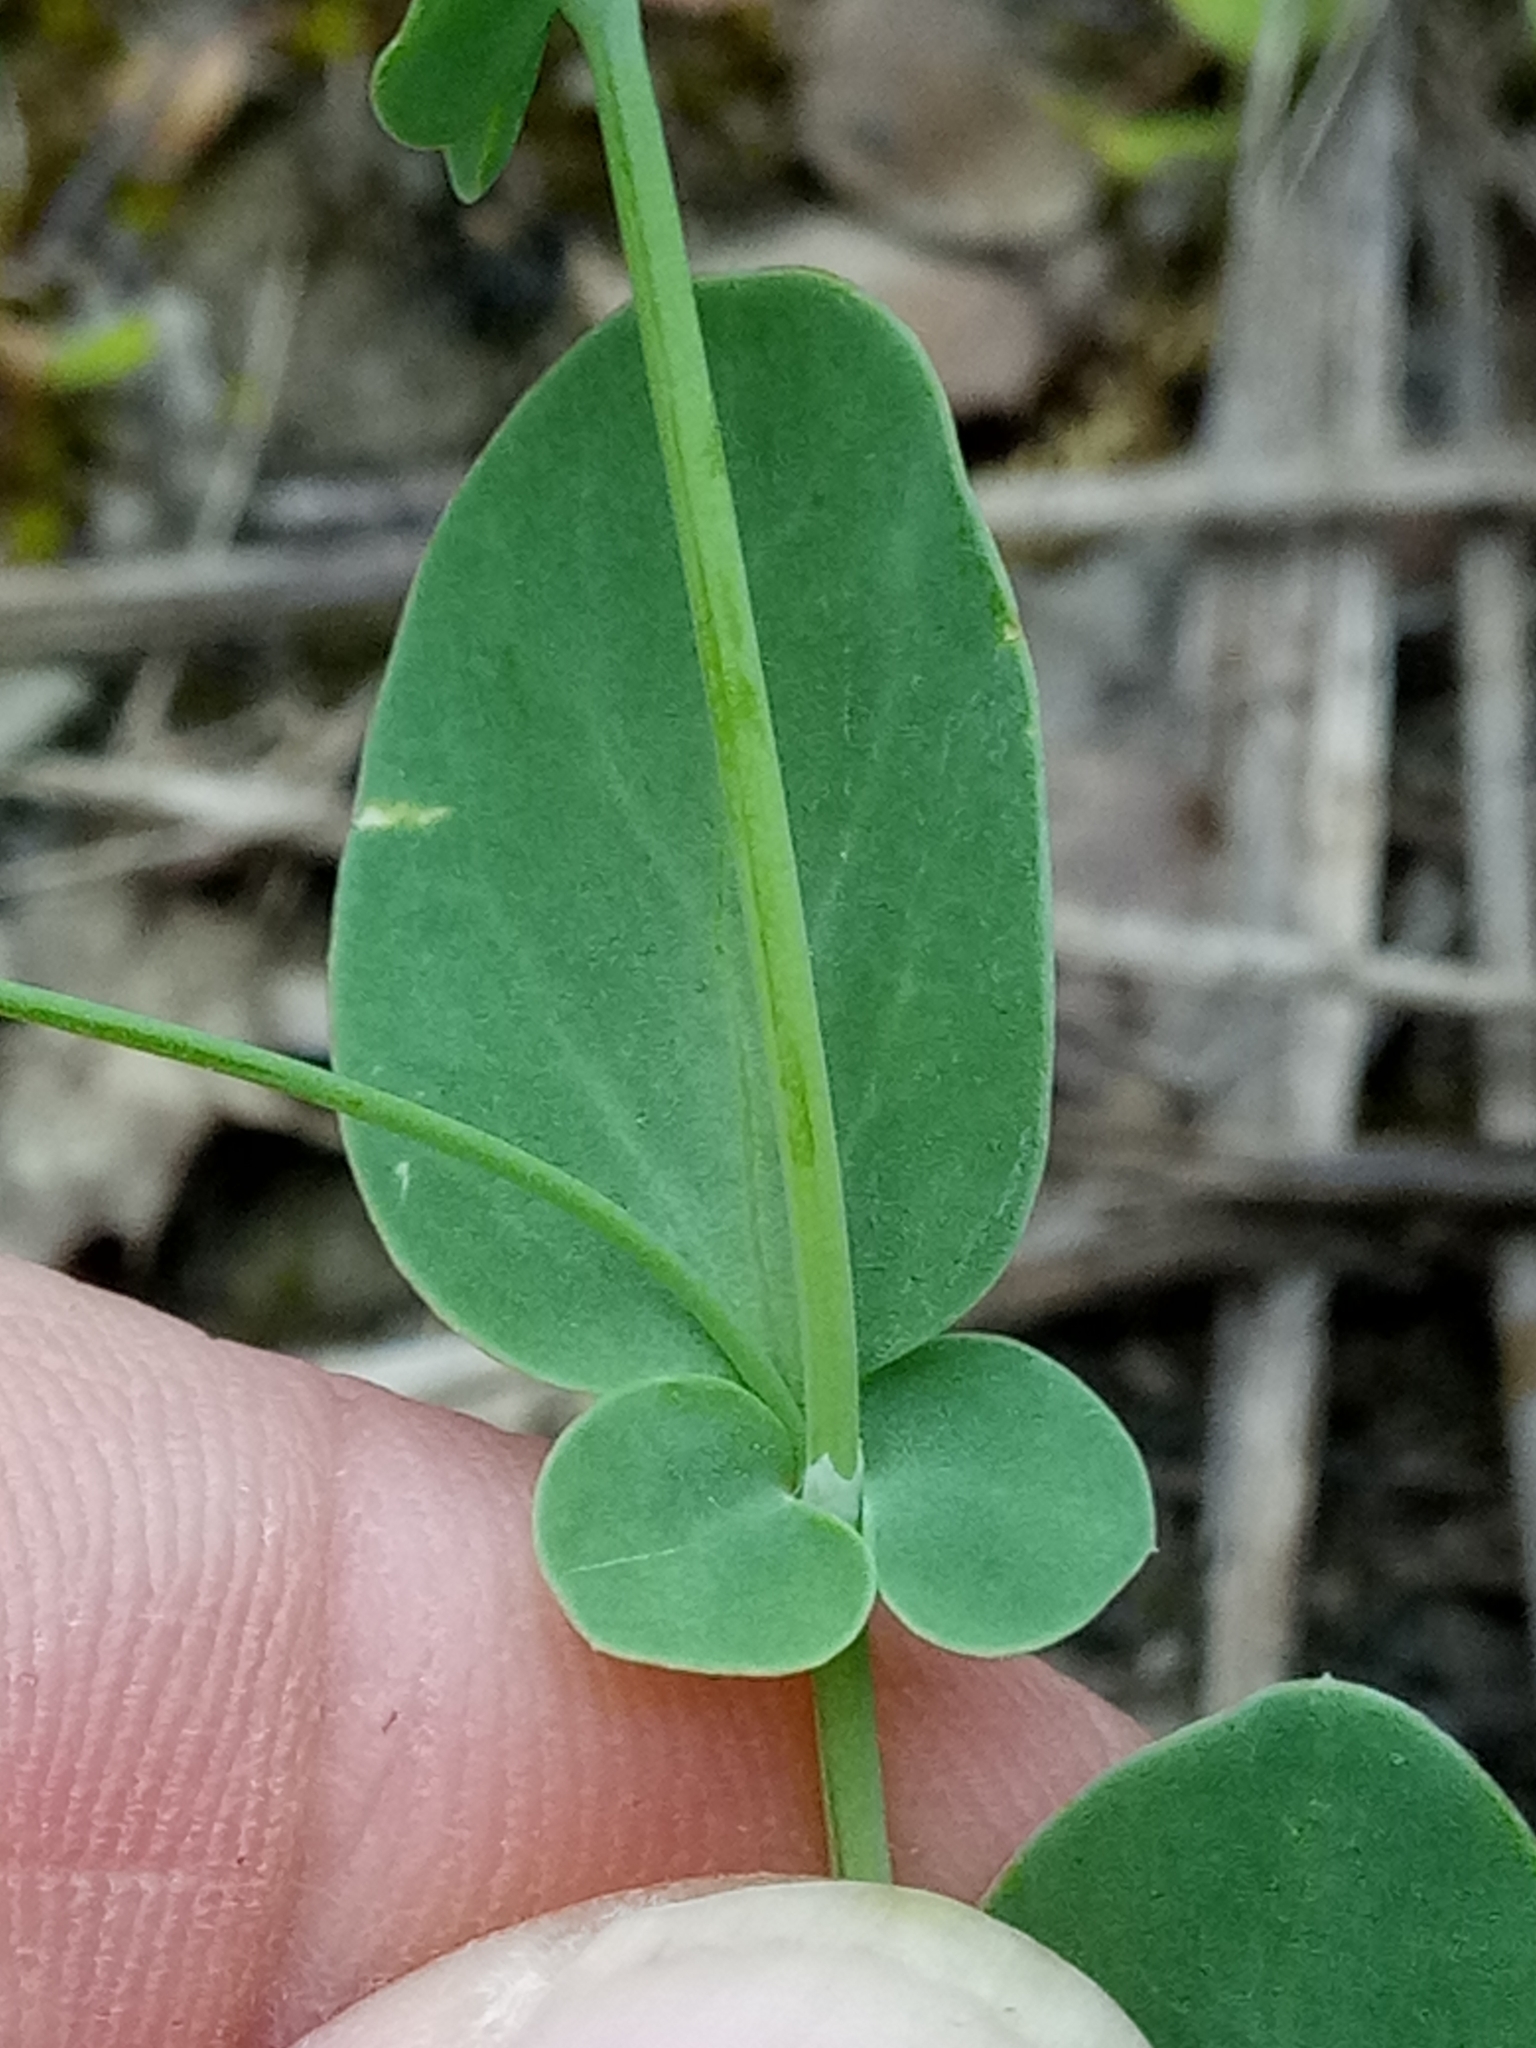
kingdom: Plantae
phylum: Tracheophyta
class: Magnoliopsida
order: Fabales
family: Fabaceae
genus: Coronilla
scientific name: Coronilla scorpioides
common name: Annual scorpion-vetch
